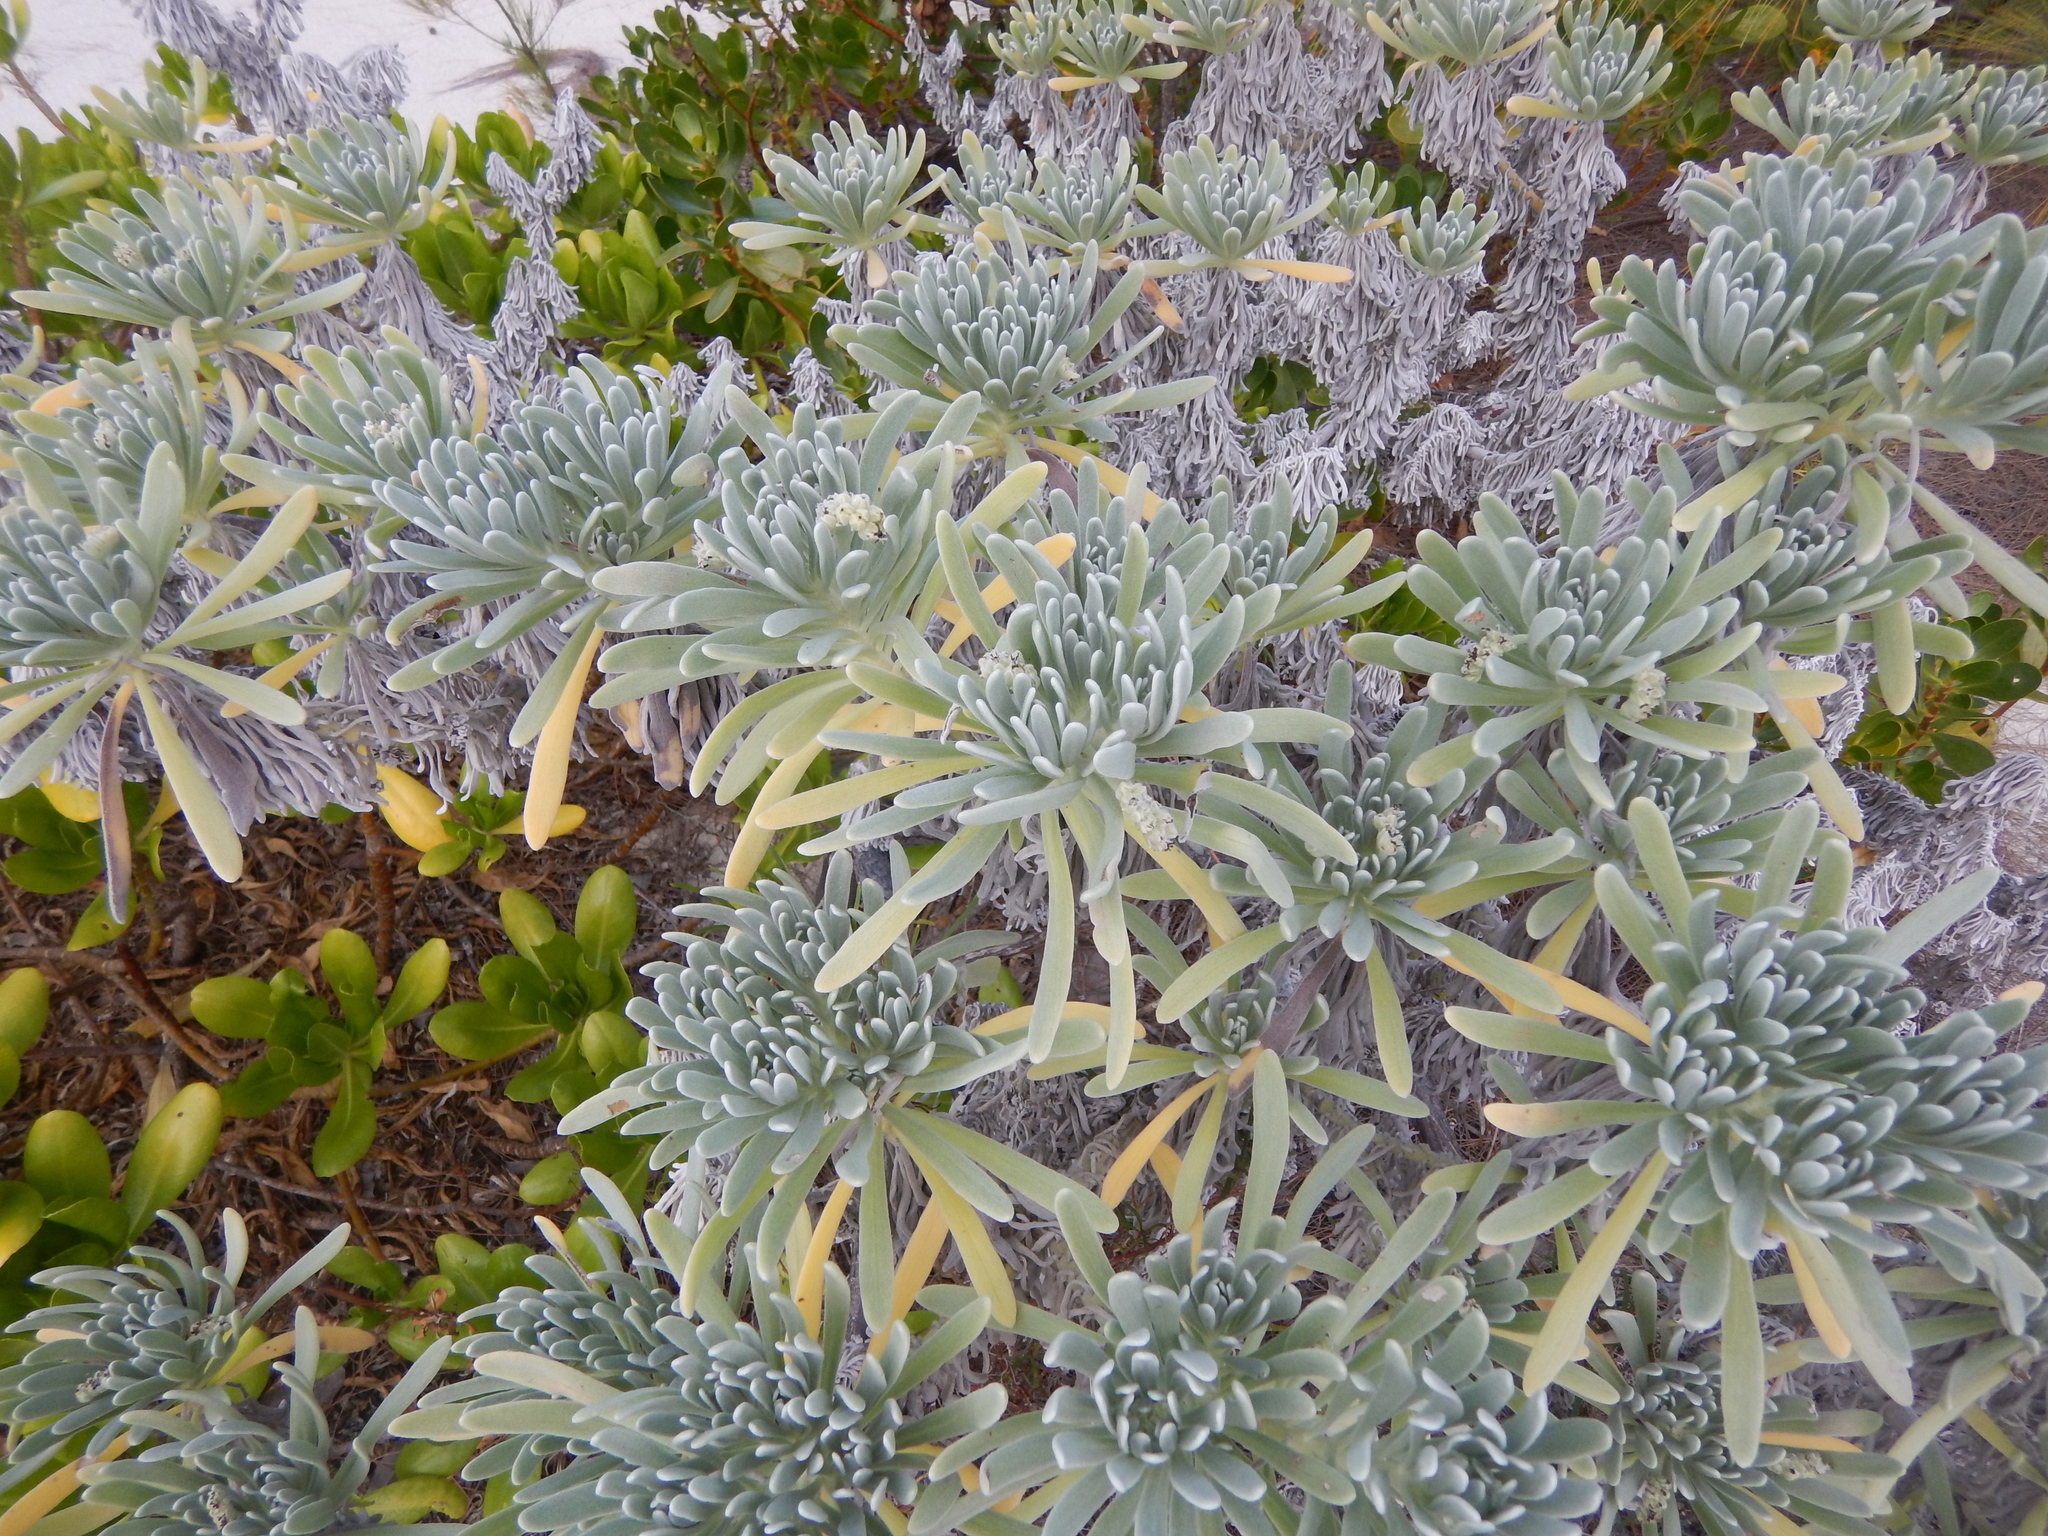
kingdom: Plantae
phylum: Tracheophyta
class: Magnoliopsida
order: Boraginales
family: Heliotropiaceae
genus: Tournefortia
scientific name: Tournefortia gnaphalodes
